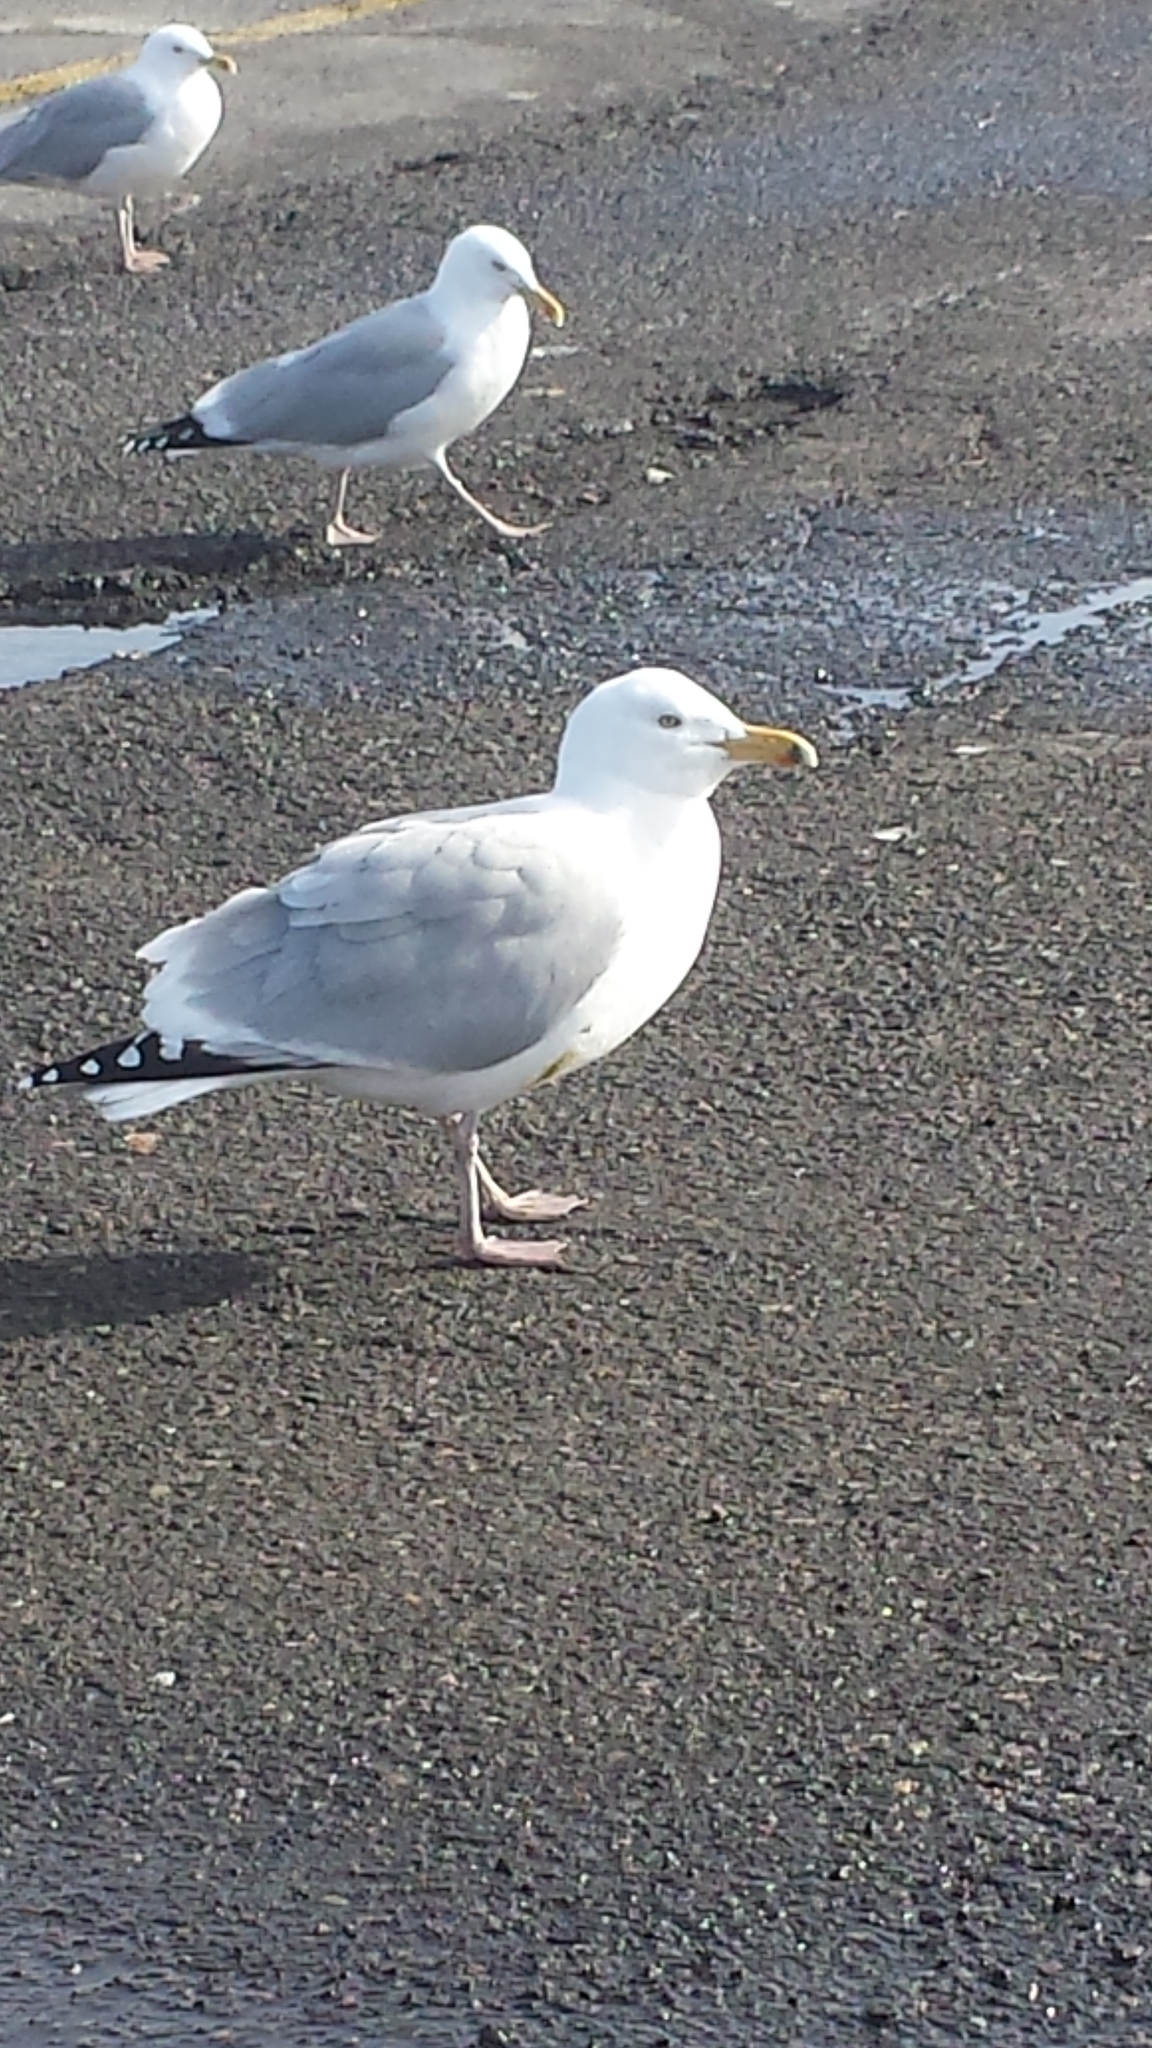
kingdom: Animalia
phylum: Chordata
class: Aves
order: Charadriiformes
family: Laridae
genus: Larus
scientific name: Larus argentatus
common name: Herring gull
